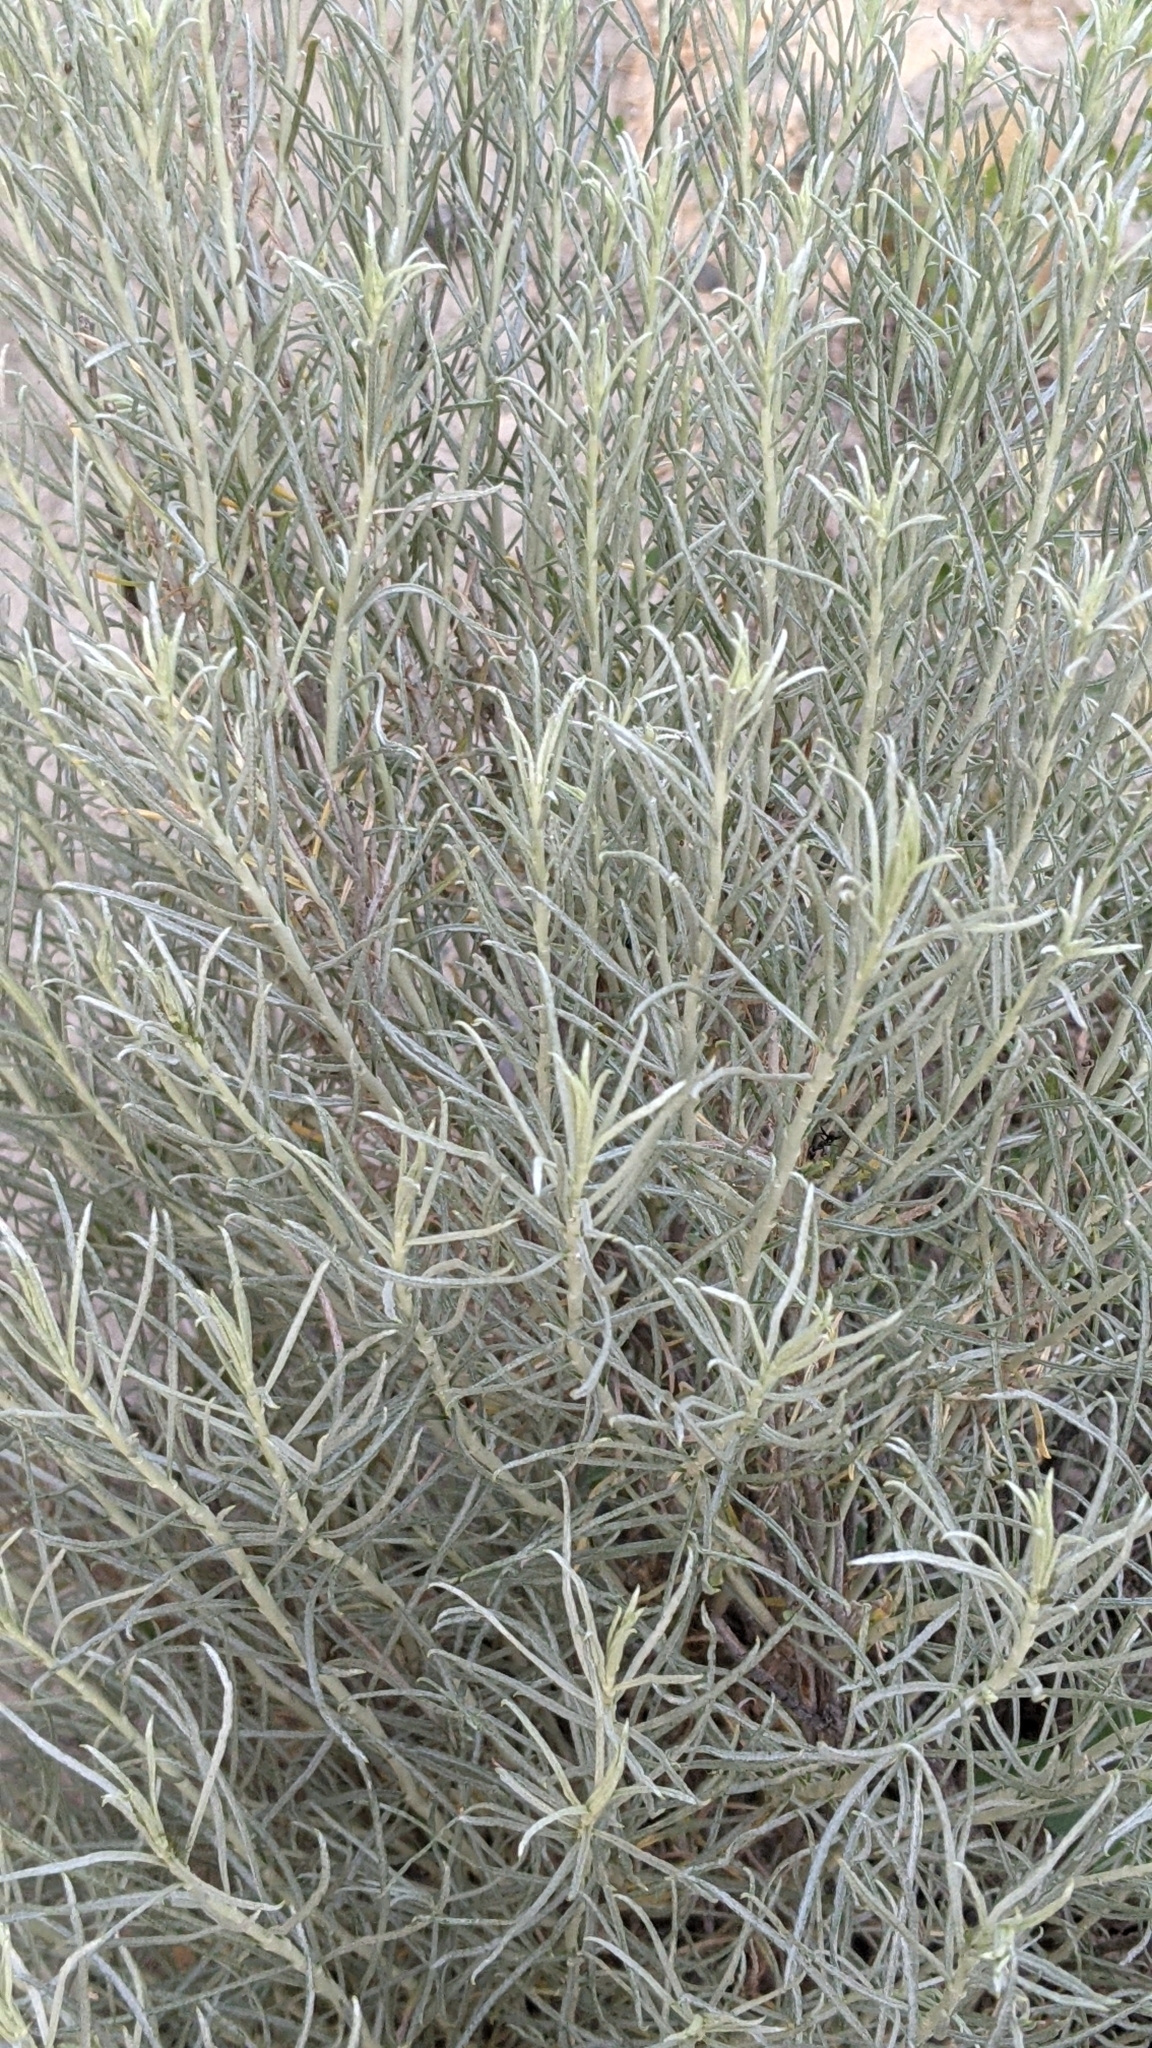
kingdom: Plantae
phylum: Tracheophyta
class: Magnoliopsida
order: Asterales
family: Asteraceae
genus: Ericameria
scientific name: Ericameria nauseosa
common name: Rubber rabbitbrush
